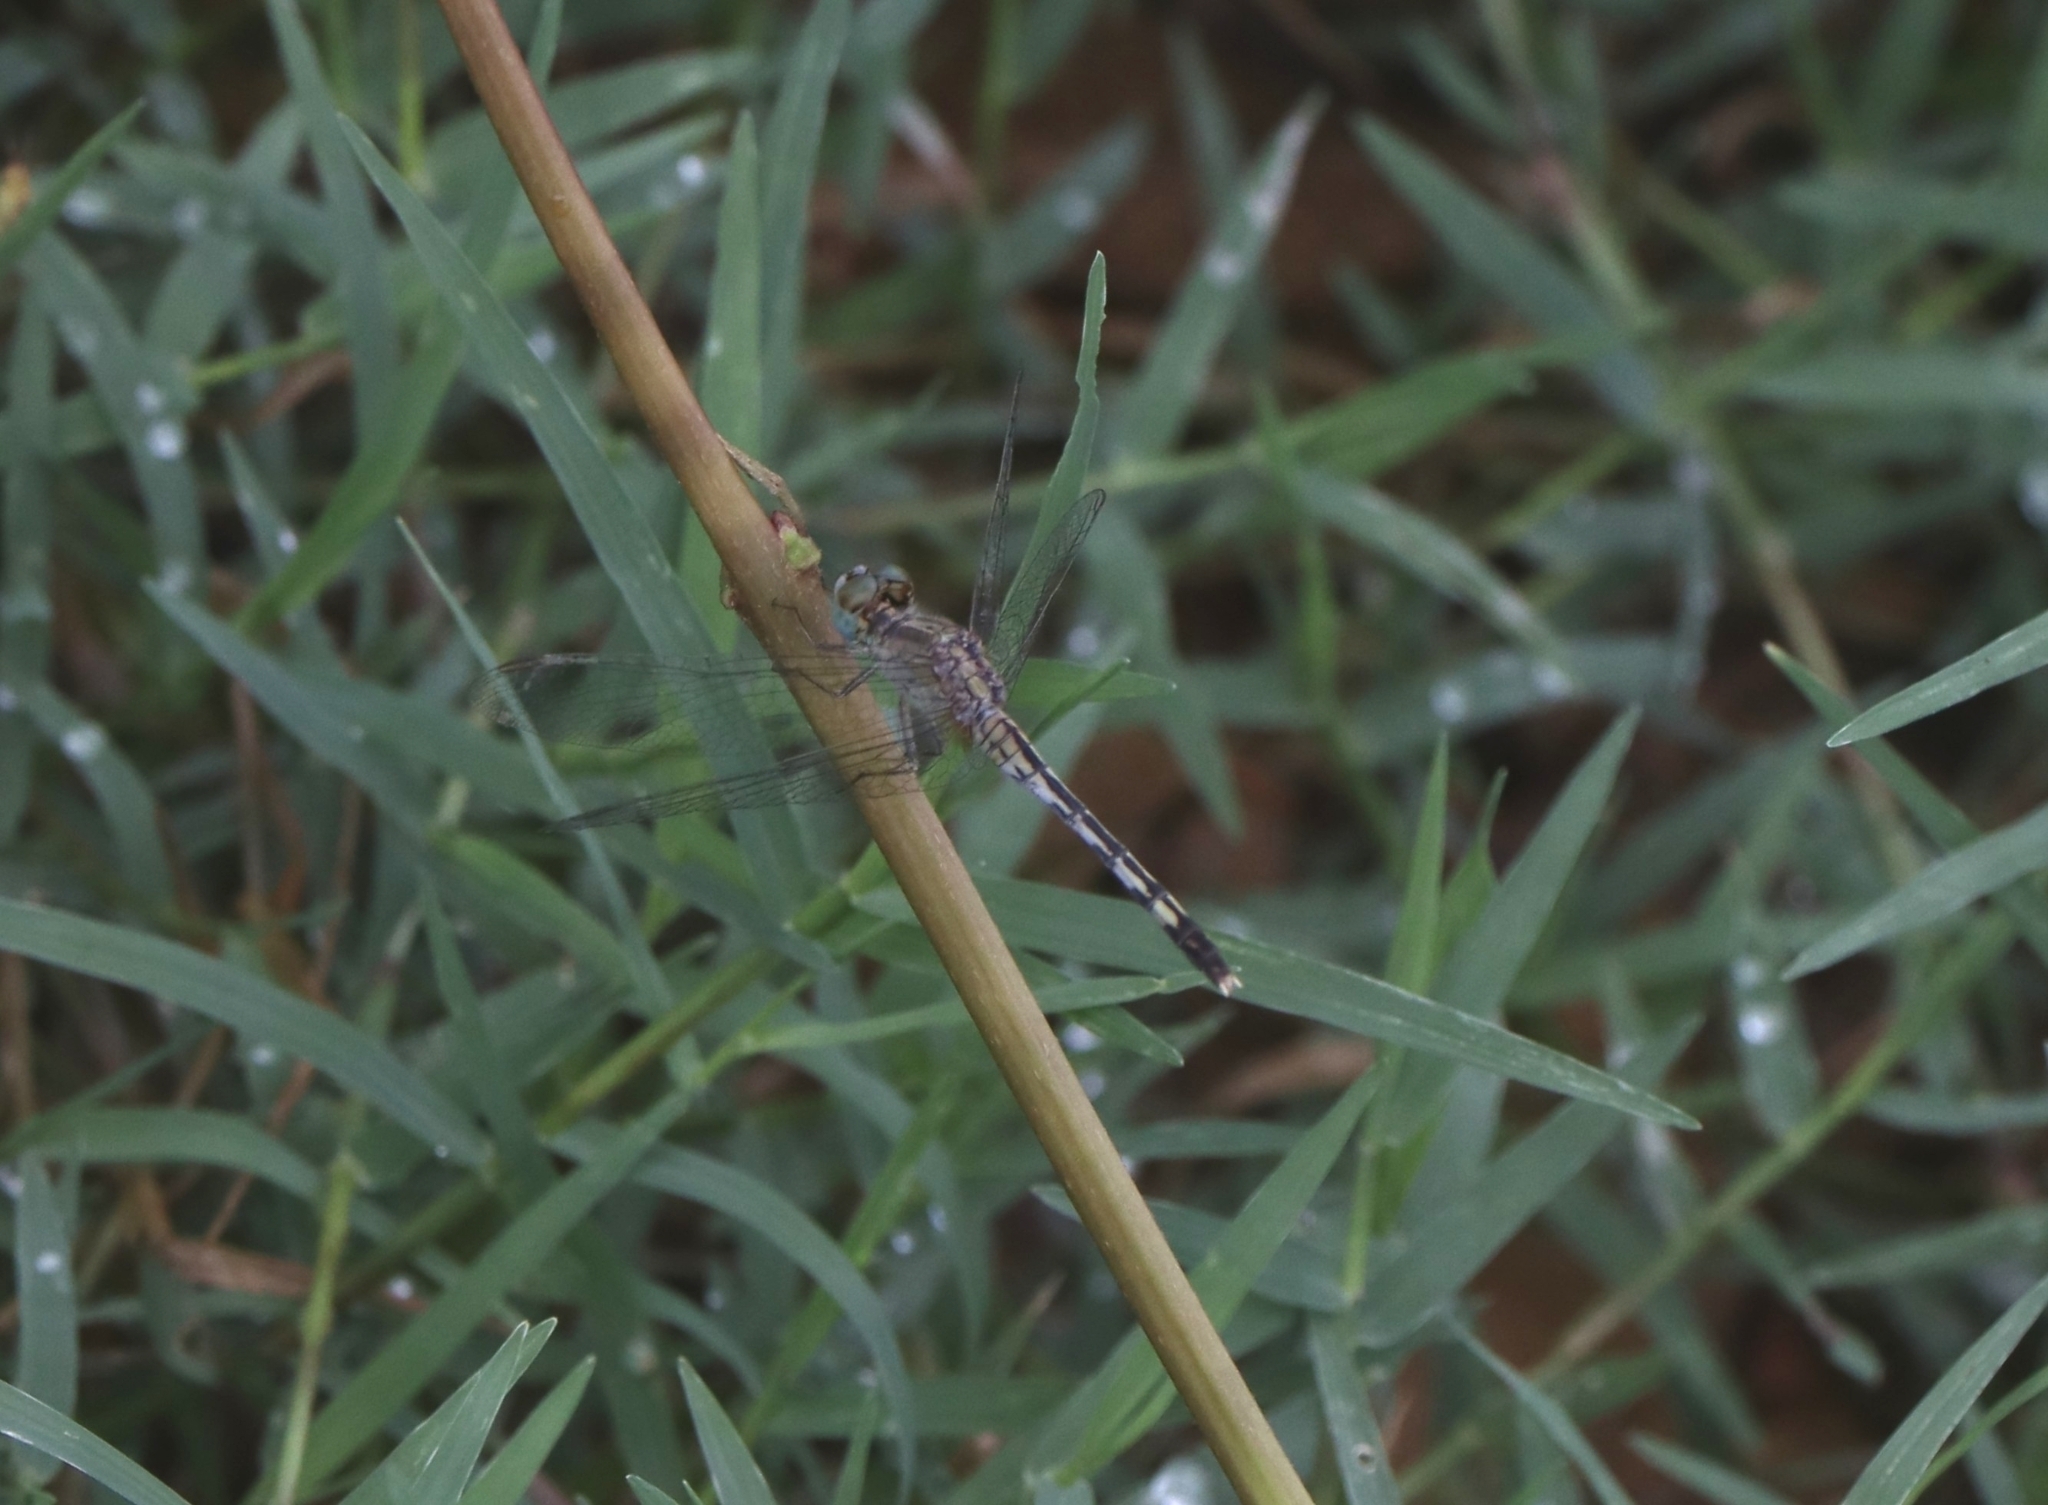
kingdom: Animalia
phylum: Arthropoda
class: Insecta
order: Odonata
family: Libellulidae
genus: Diplacodes
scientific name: Diplacodes trivialis
